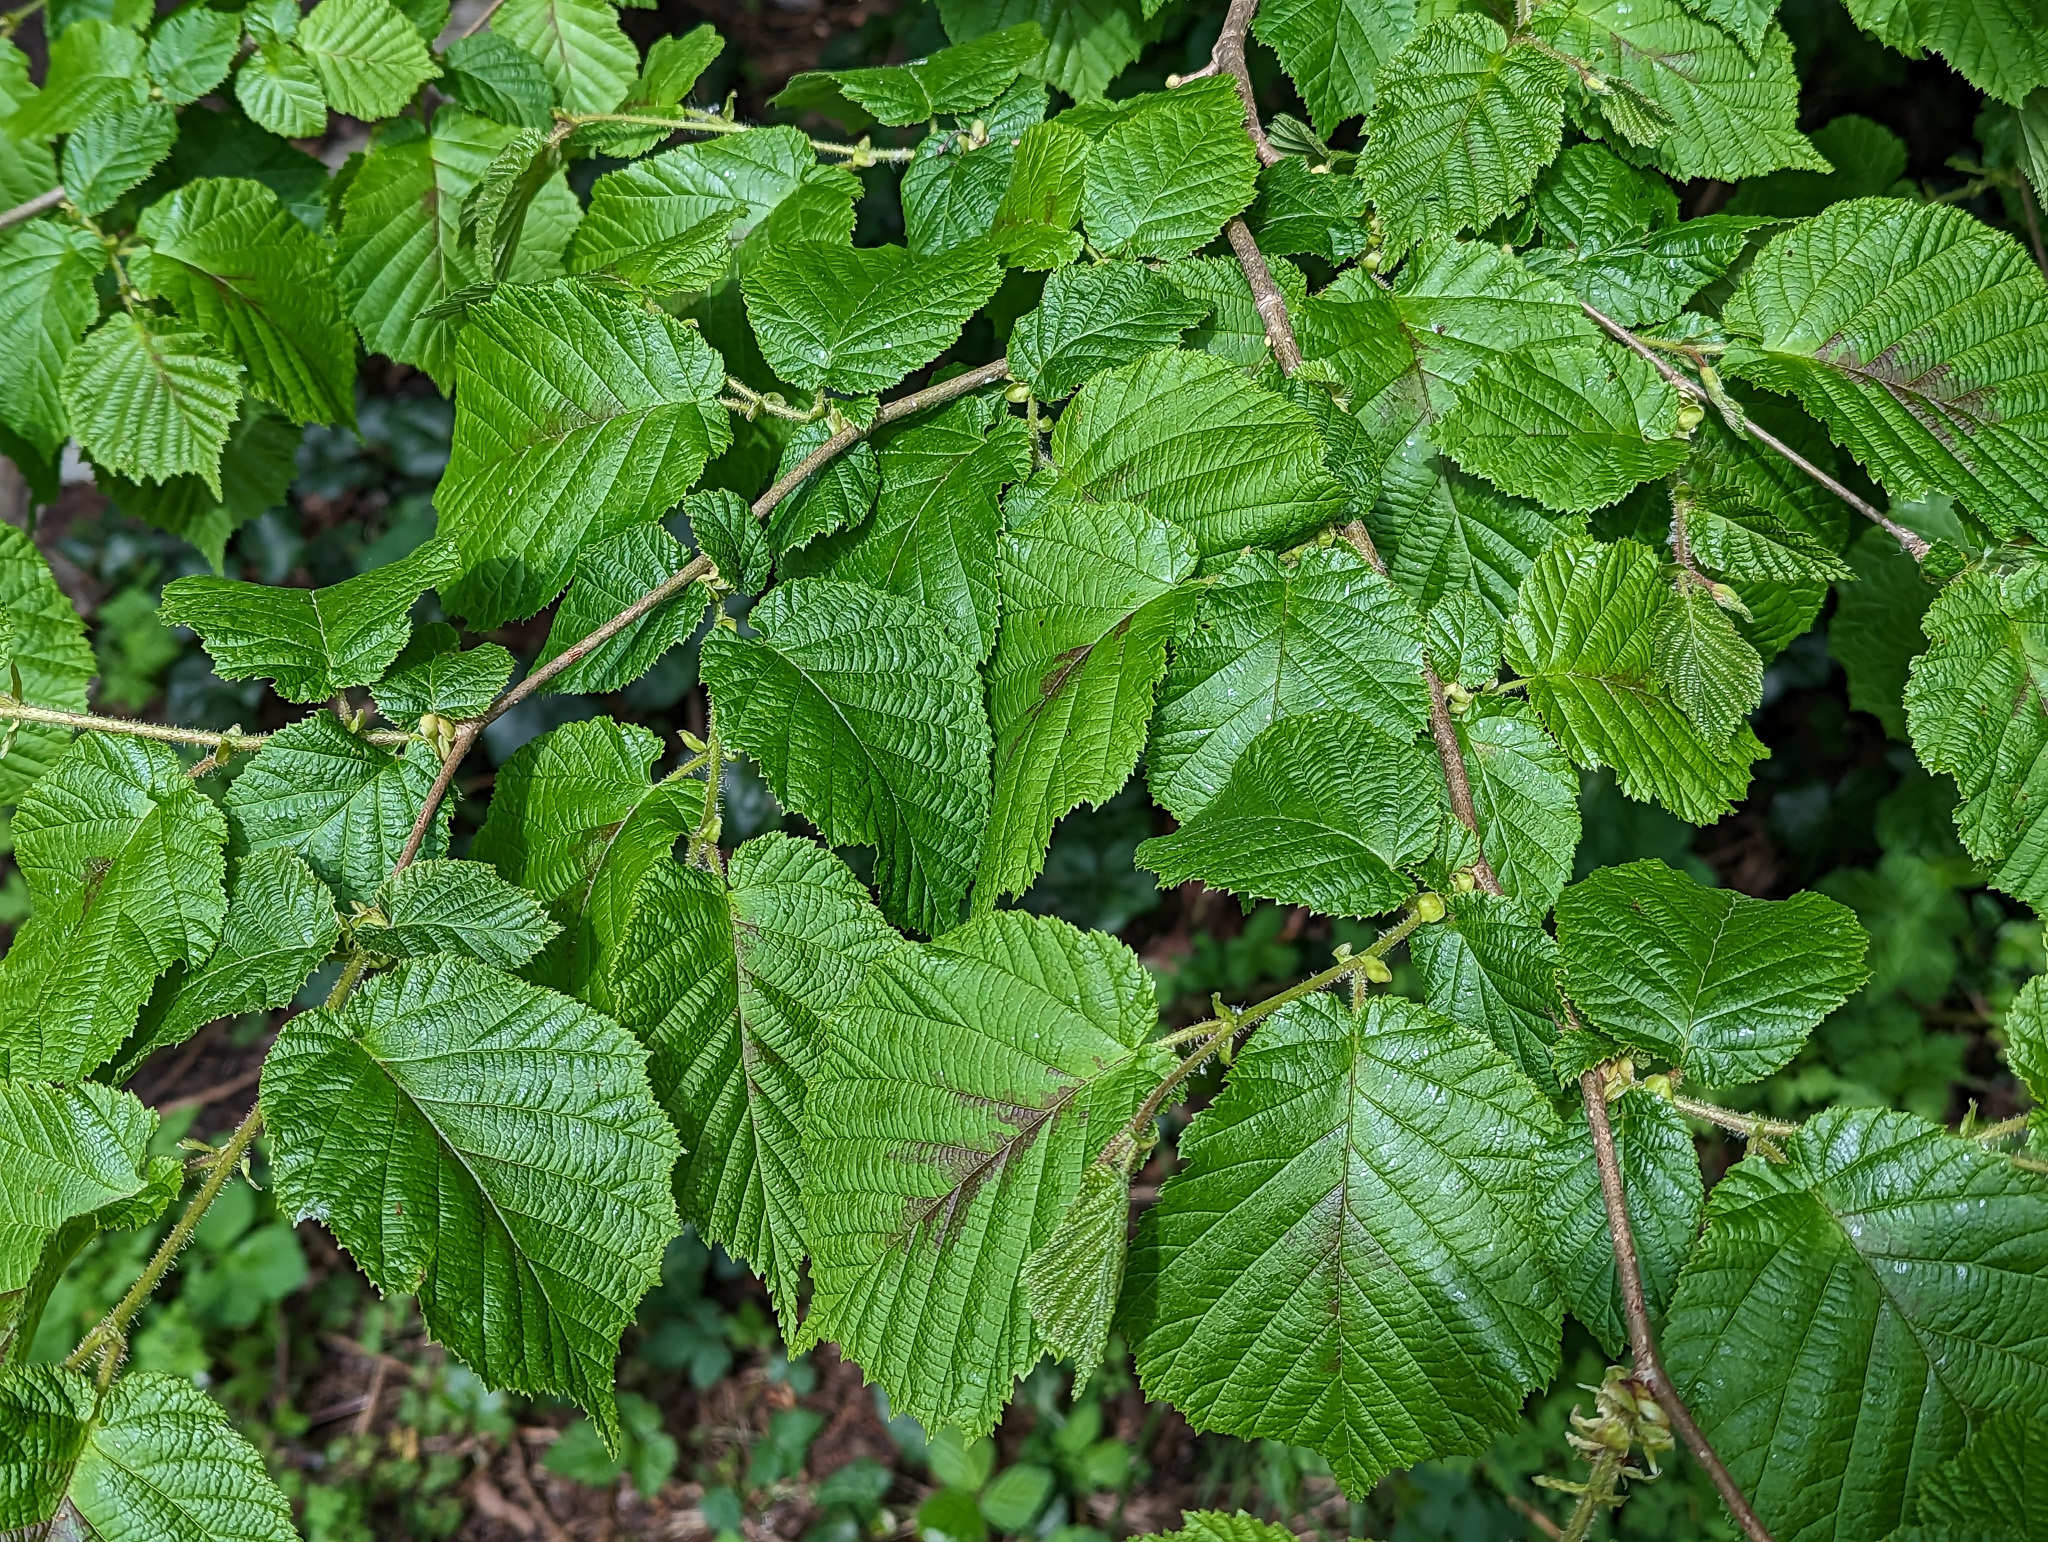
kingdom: Plantae
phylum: Tracheophyta
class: Magnoliopsida
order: Fagales
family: Betulaceae
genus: Corylus
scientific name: Corylus avellana
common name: European hazel
